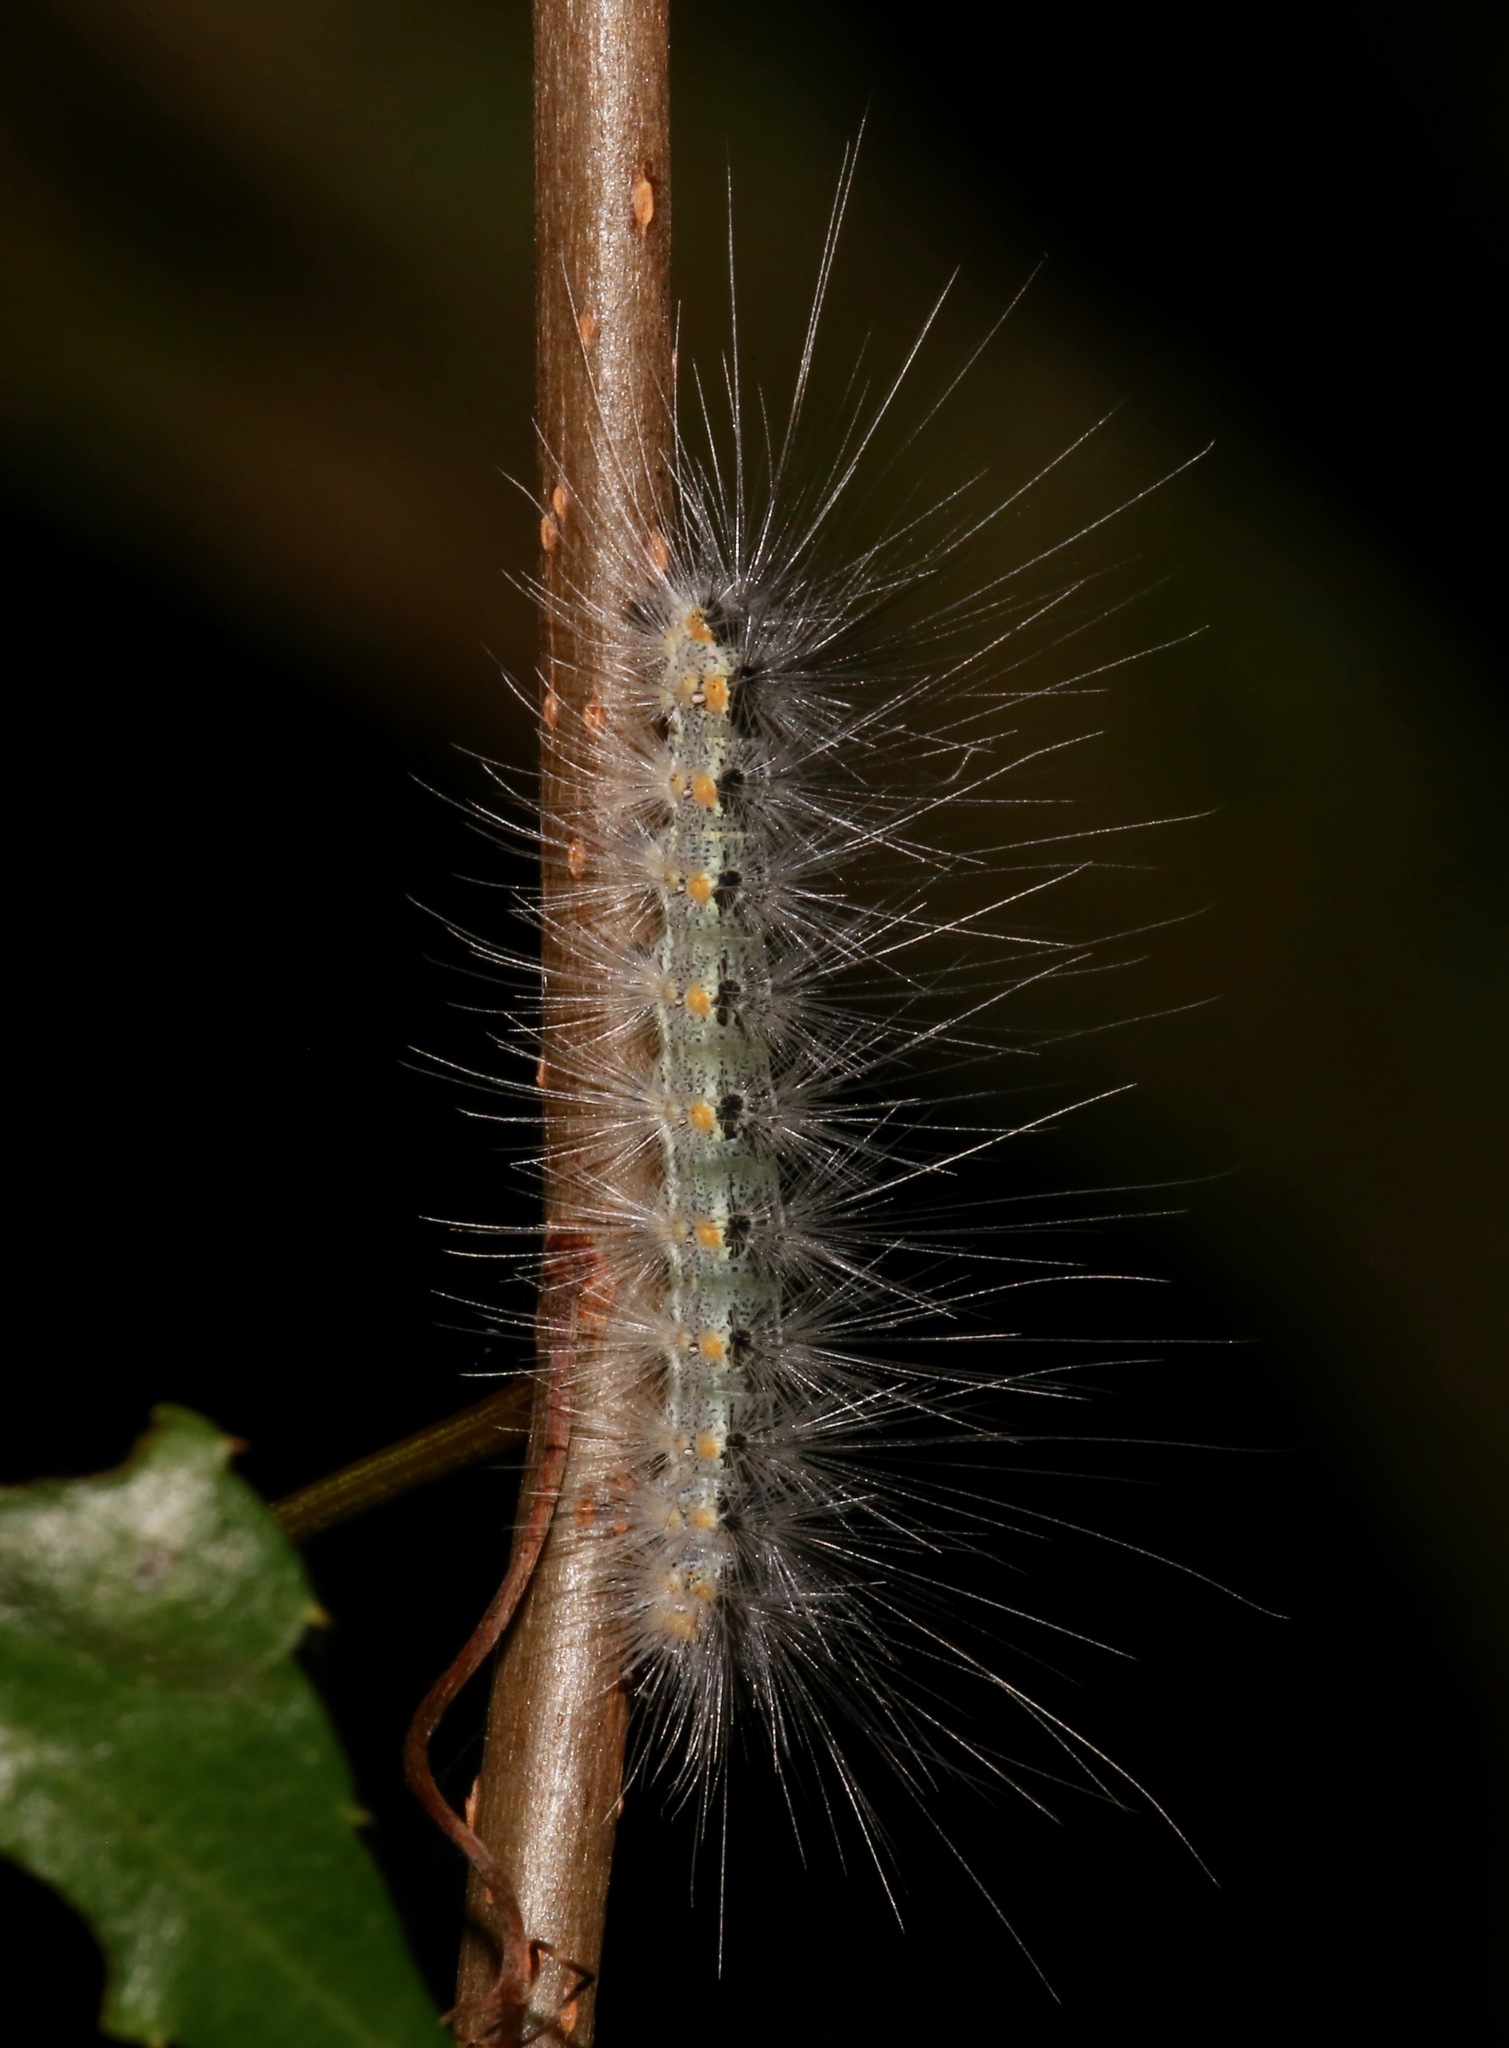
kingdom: Animalia
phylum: Arthropoda
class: Insecta
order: Lepidoptera
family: Erebidae
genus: Hyphantria
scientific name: Hyphantria cunea
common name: American white moth
